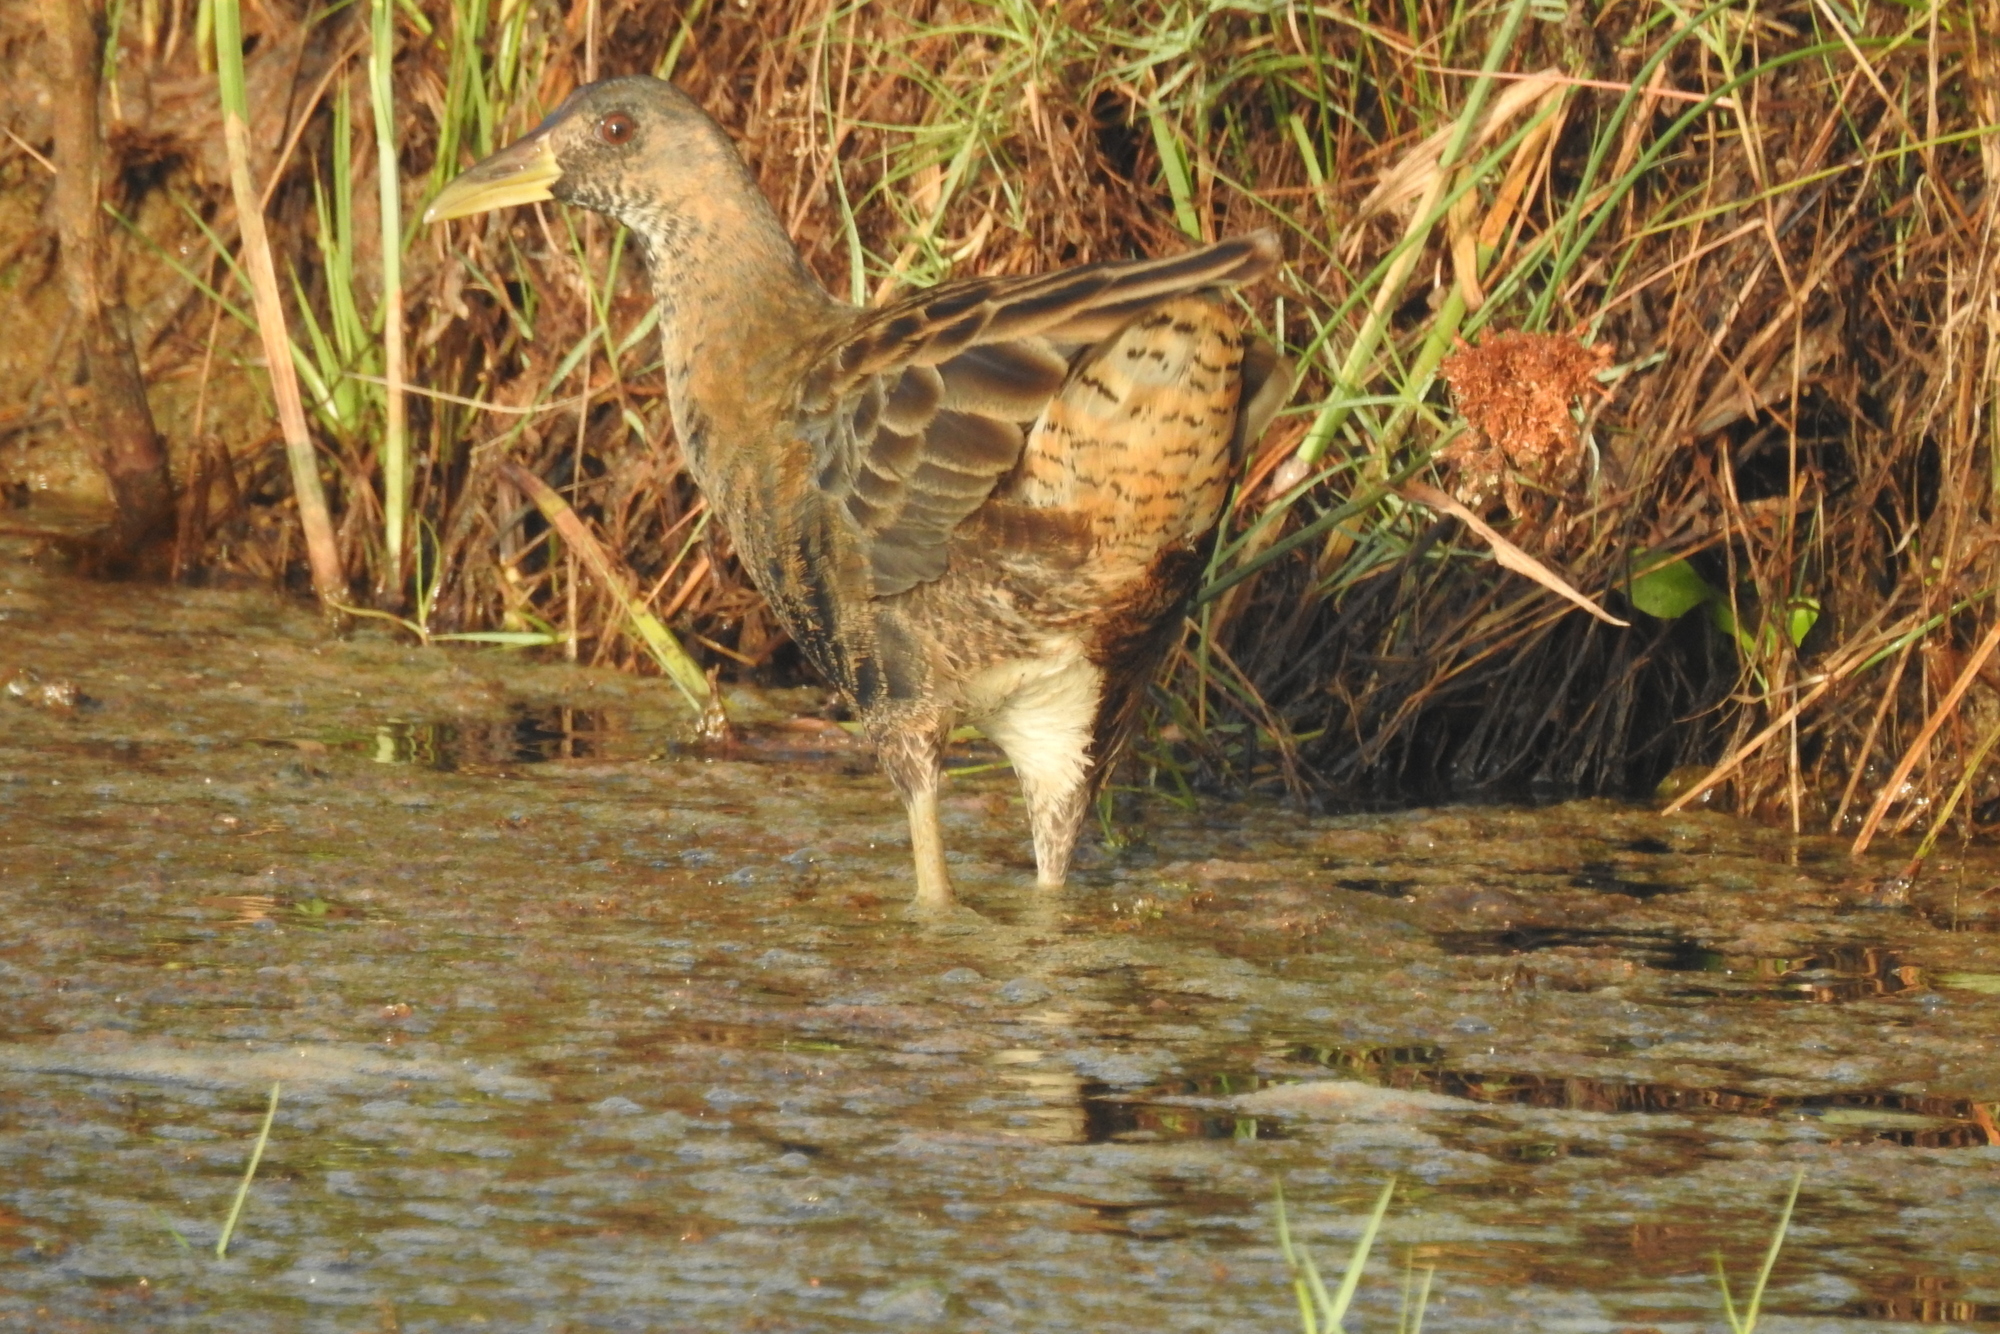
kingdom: Animalia
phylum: Chordata
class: Aves
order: Gruiformes
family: Rallidae
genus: Gallicrex
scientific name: Gallicrex cinerea
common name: Watercock
